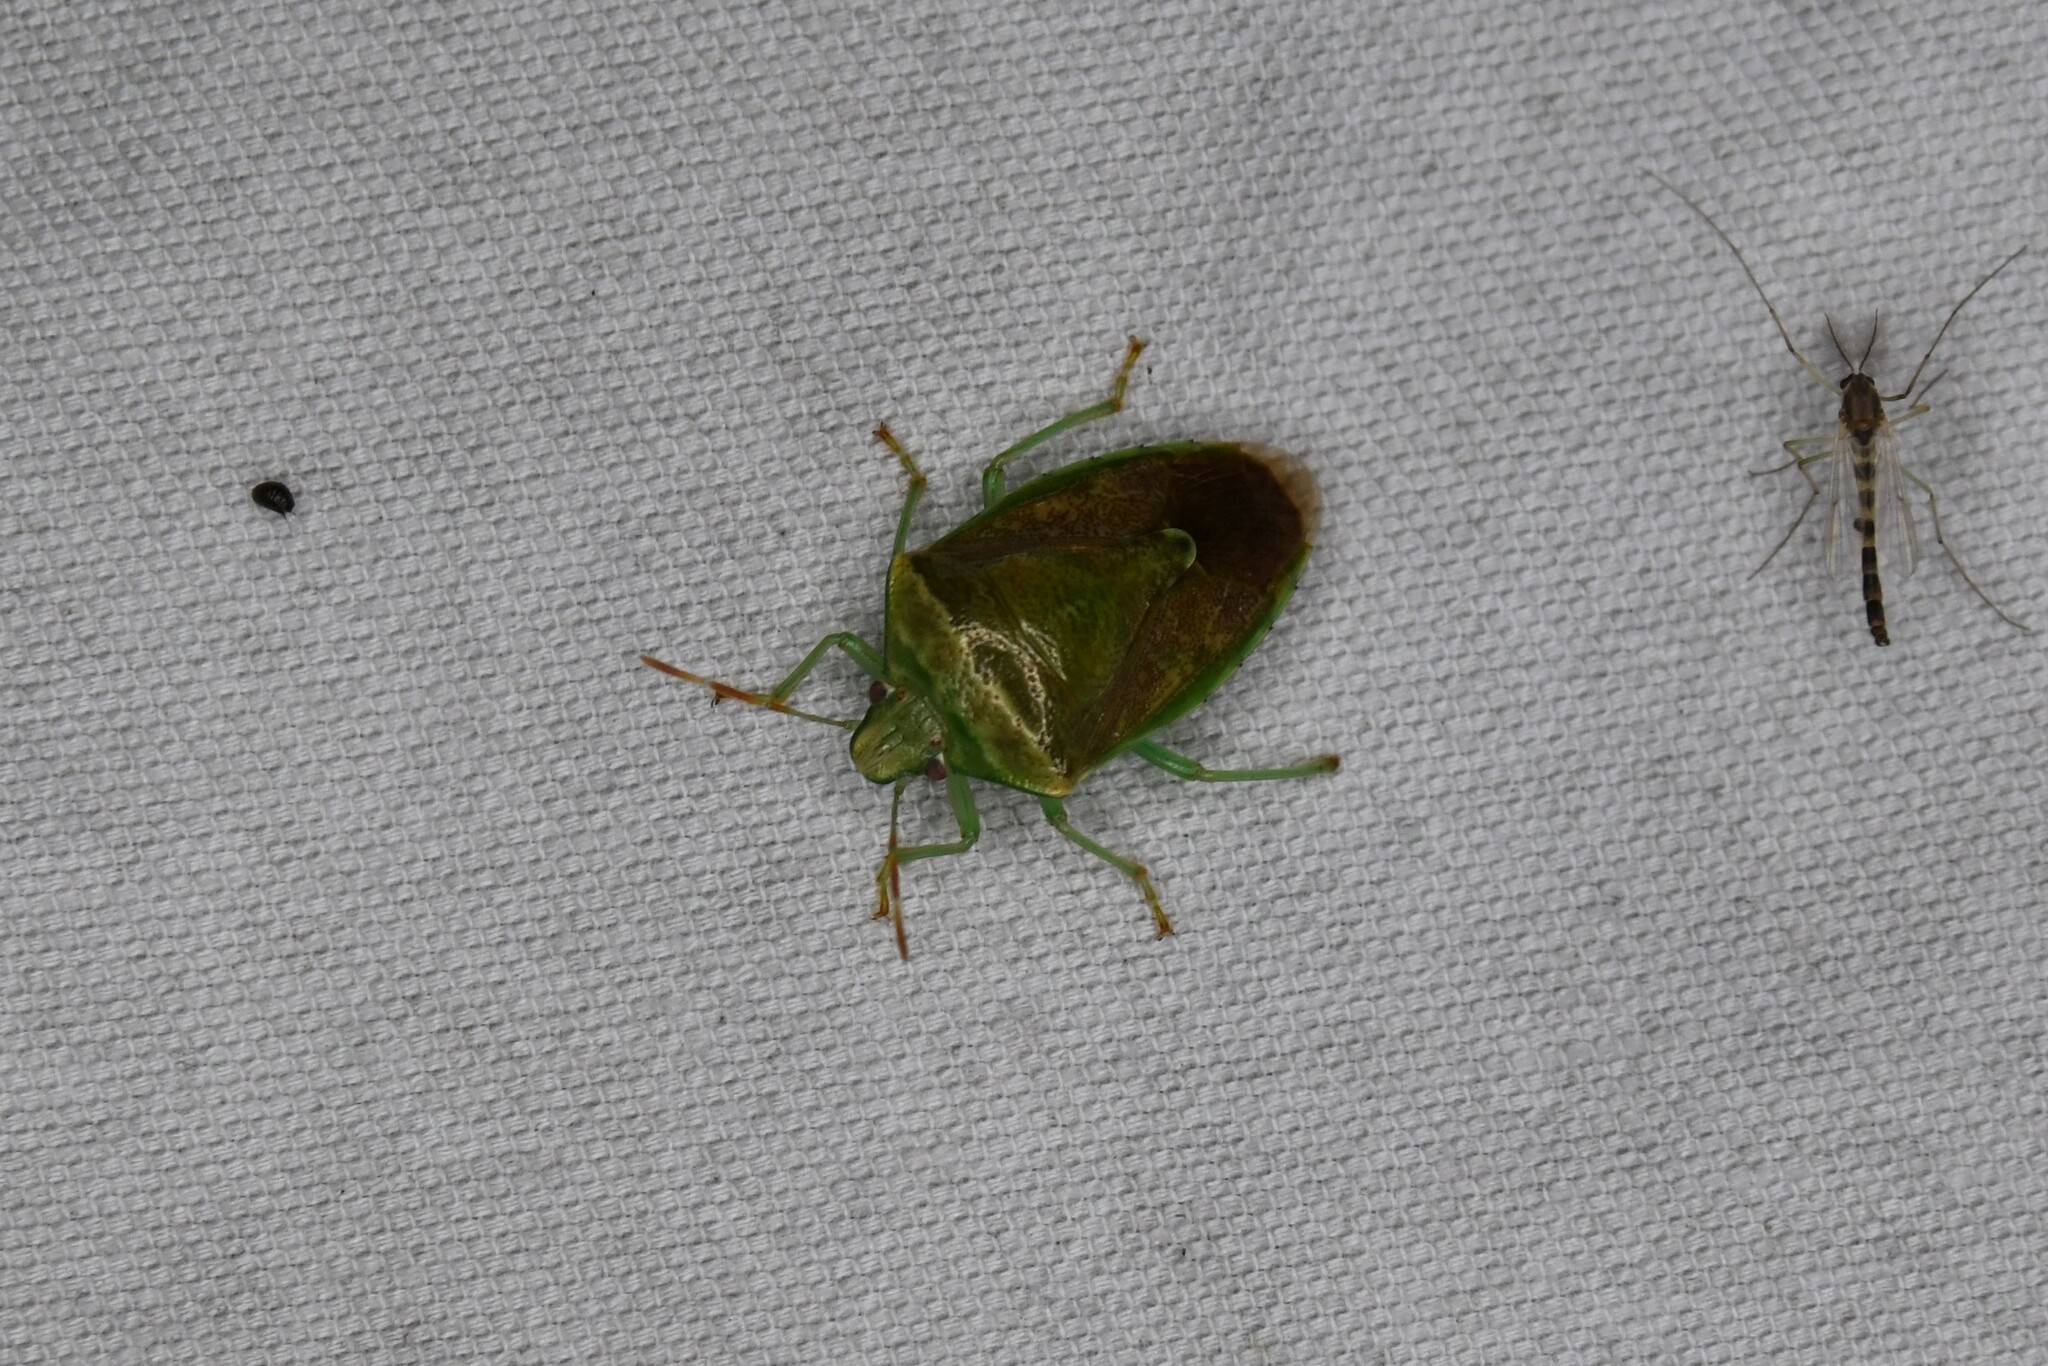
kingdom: Animalia
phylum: Arthropoda
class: Insecta
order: Hemiptera
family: Pentatomidae
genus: Banasa
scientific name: Banasa calva
